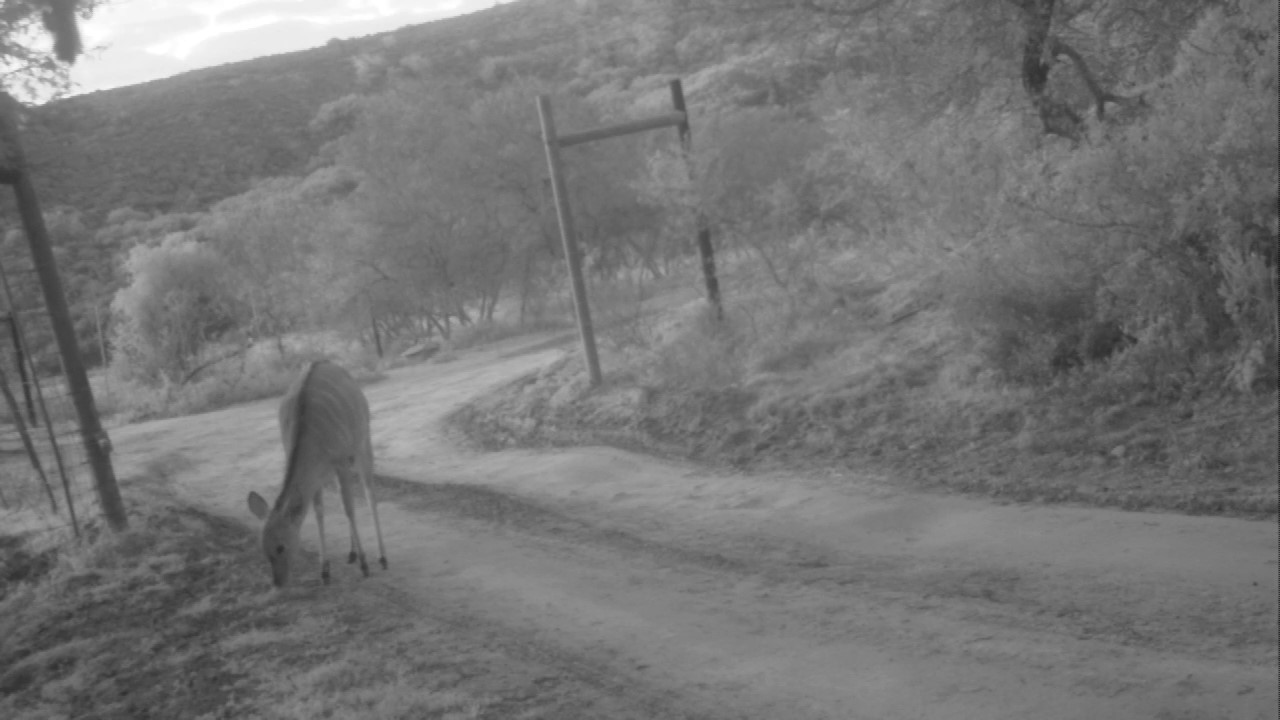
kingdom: Animalia
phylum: Chordata
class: Mammalia
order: Artiodactyla
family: Bovidae
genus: Tragelaphus
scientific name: Tragelaphus angasii
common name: Nyala
